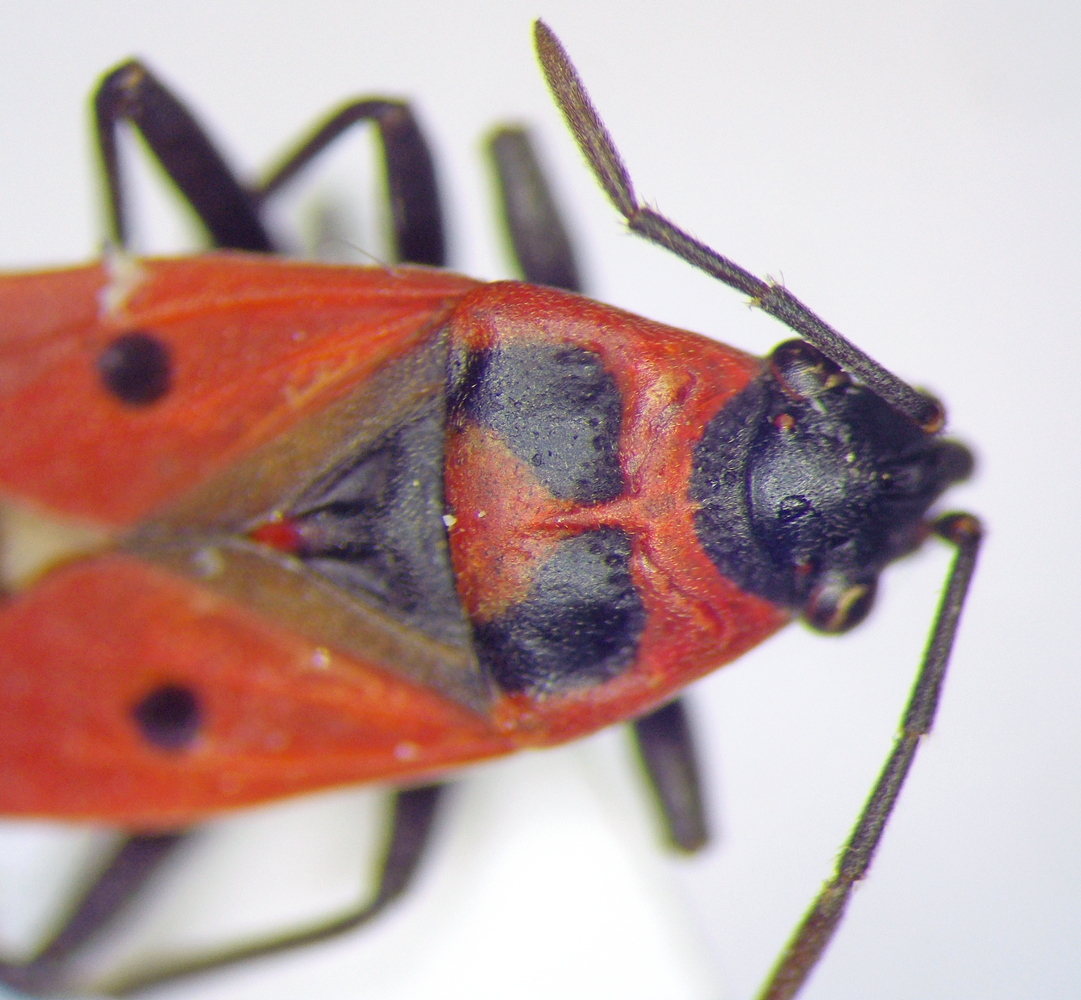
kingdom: Animalia
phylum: Arthropoda
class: Insecta
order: Hemiptera
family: Lygaeidae
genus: Melanocoryphus
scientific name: Melanocoryphus albomaculatus
